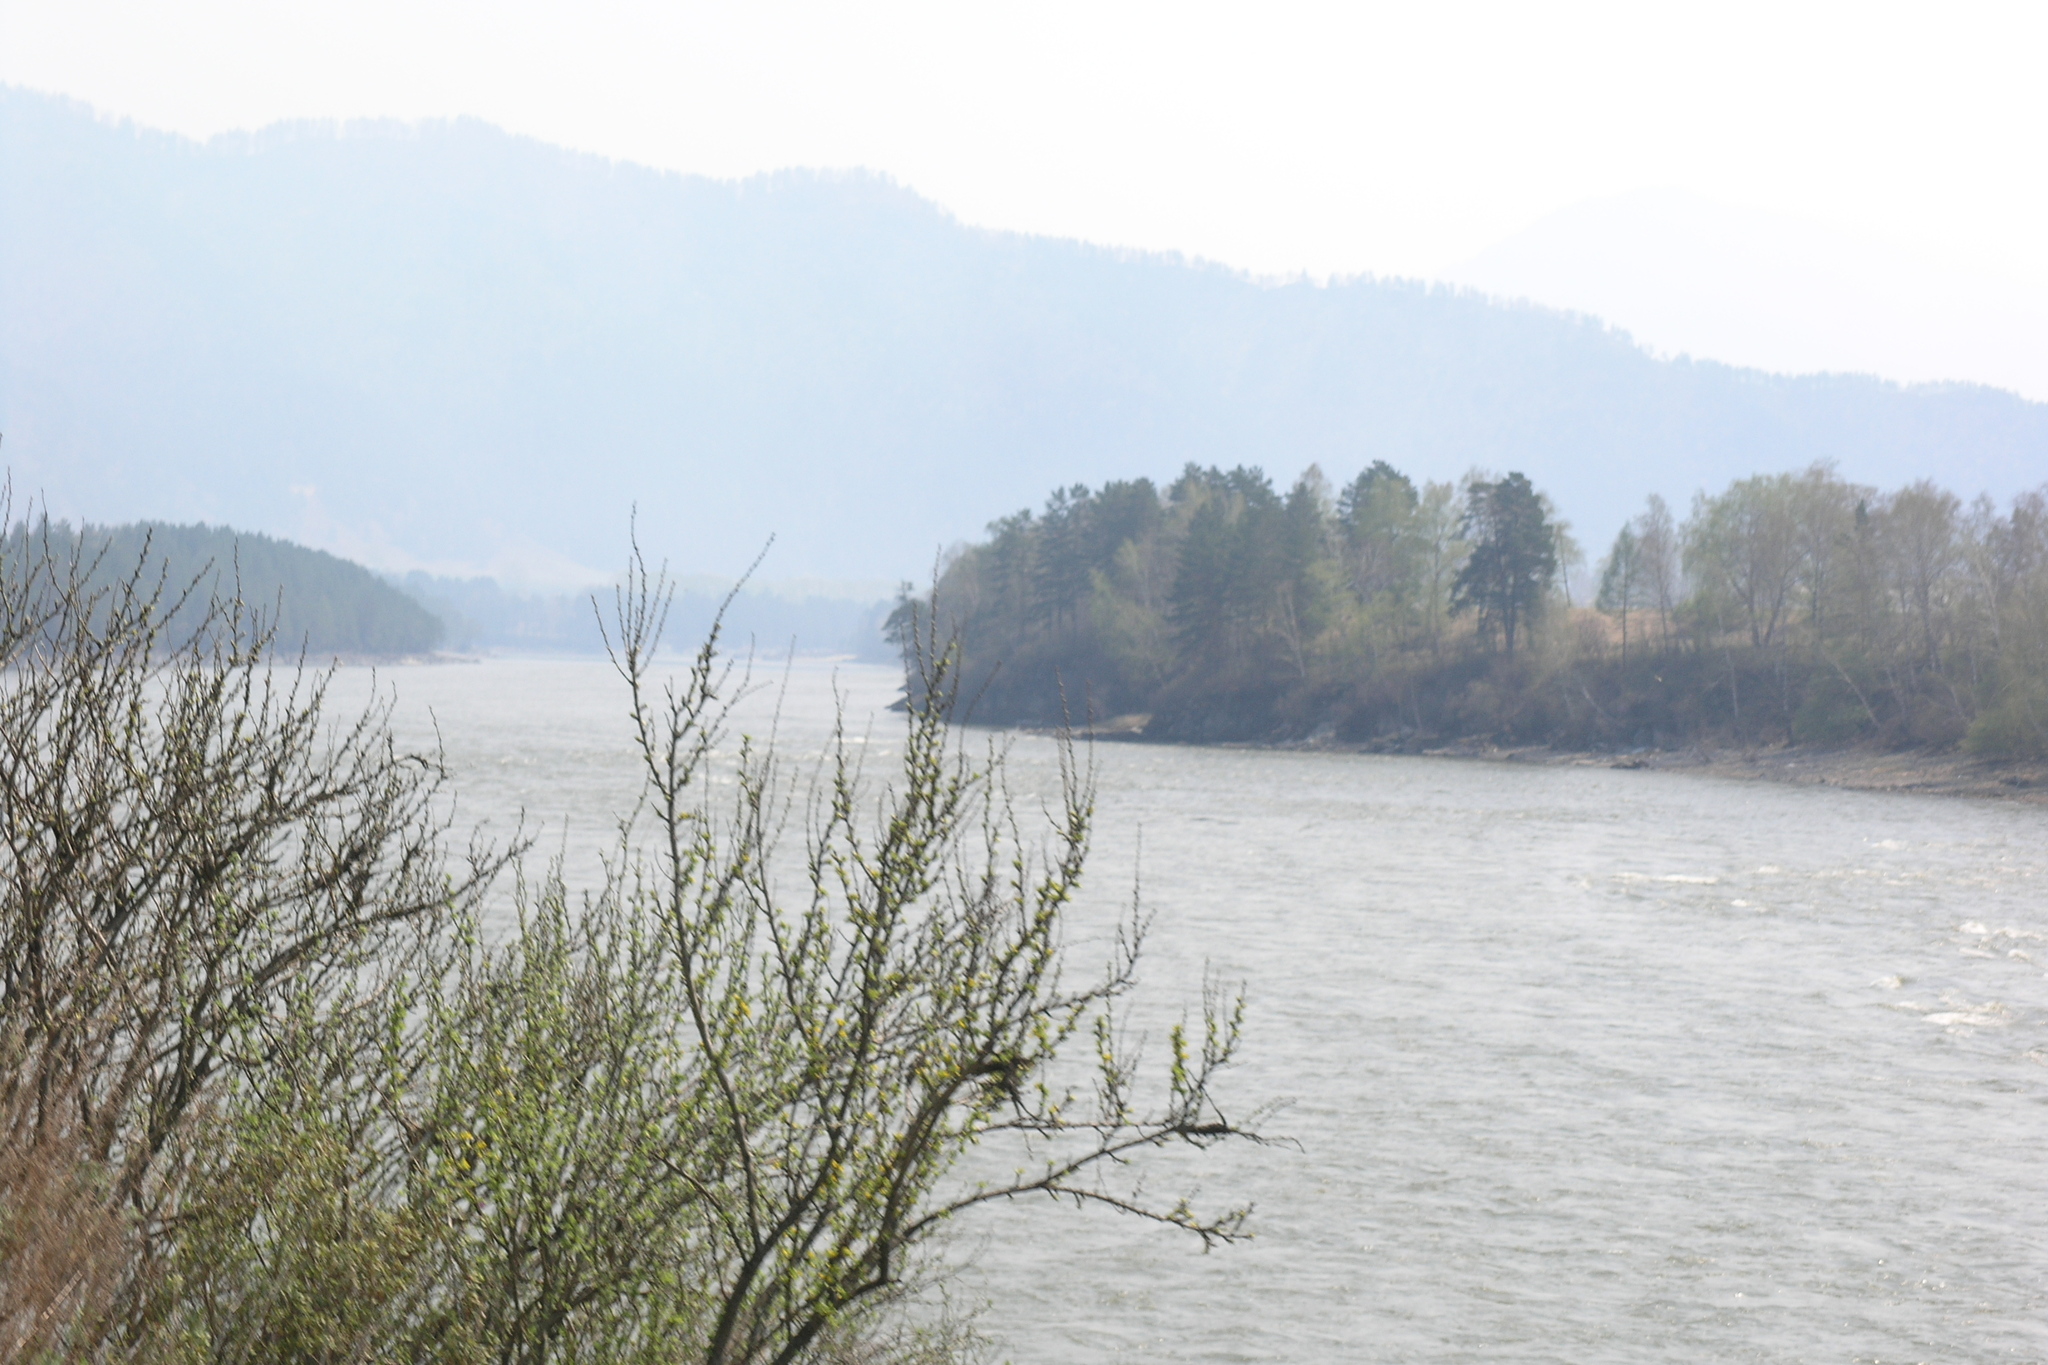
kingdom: Plantae
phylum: Tracheophyta
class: Magnoliopsida
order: Fabales
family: Fabaceae
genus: Caragana
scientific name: Caragana arborescens
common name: Siberian peashrub
